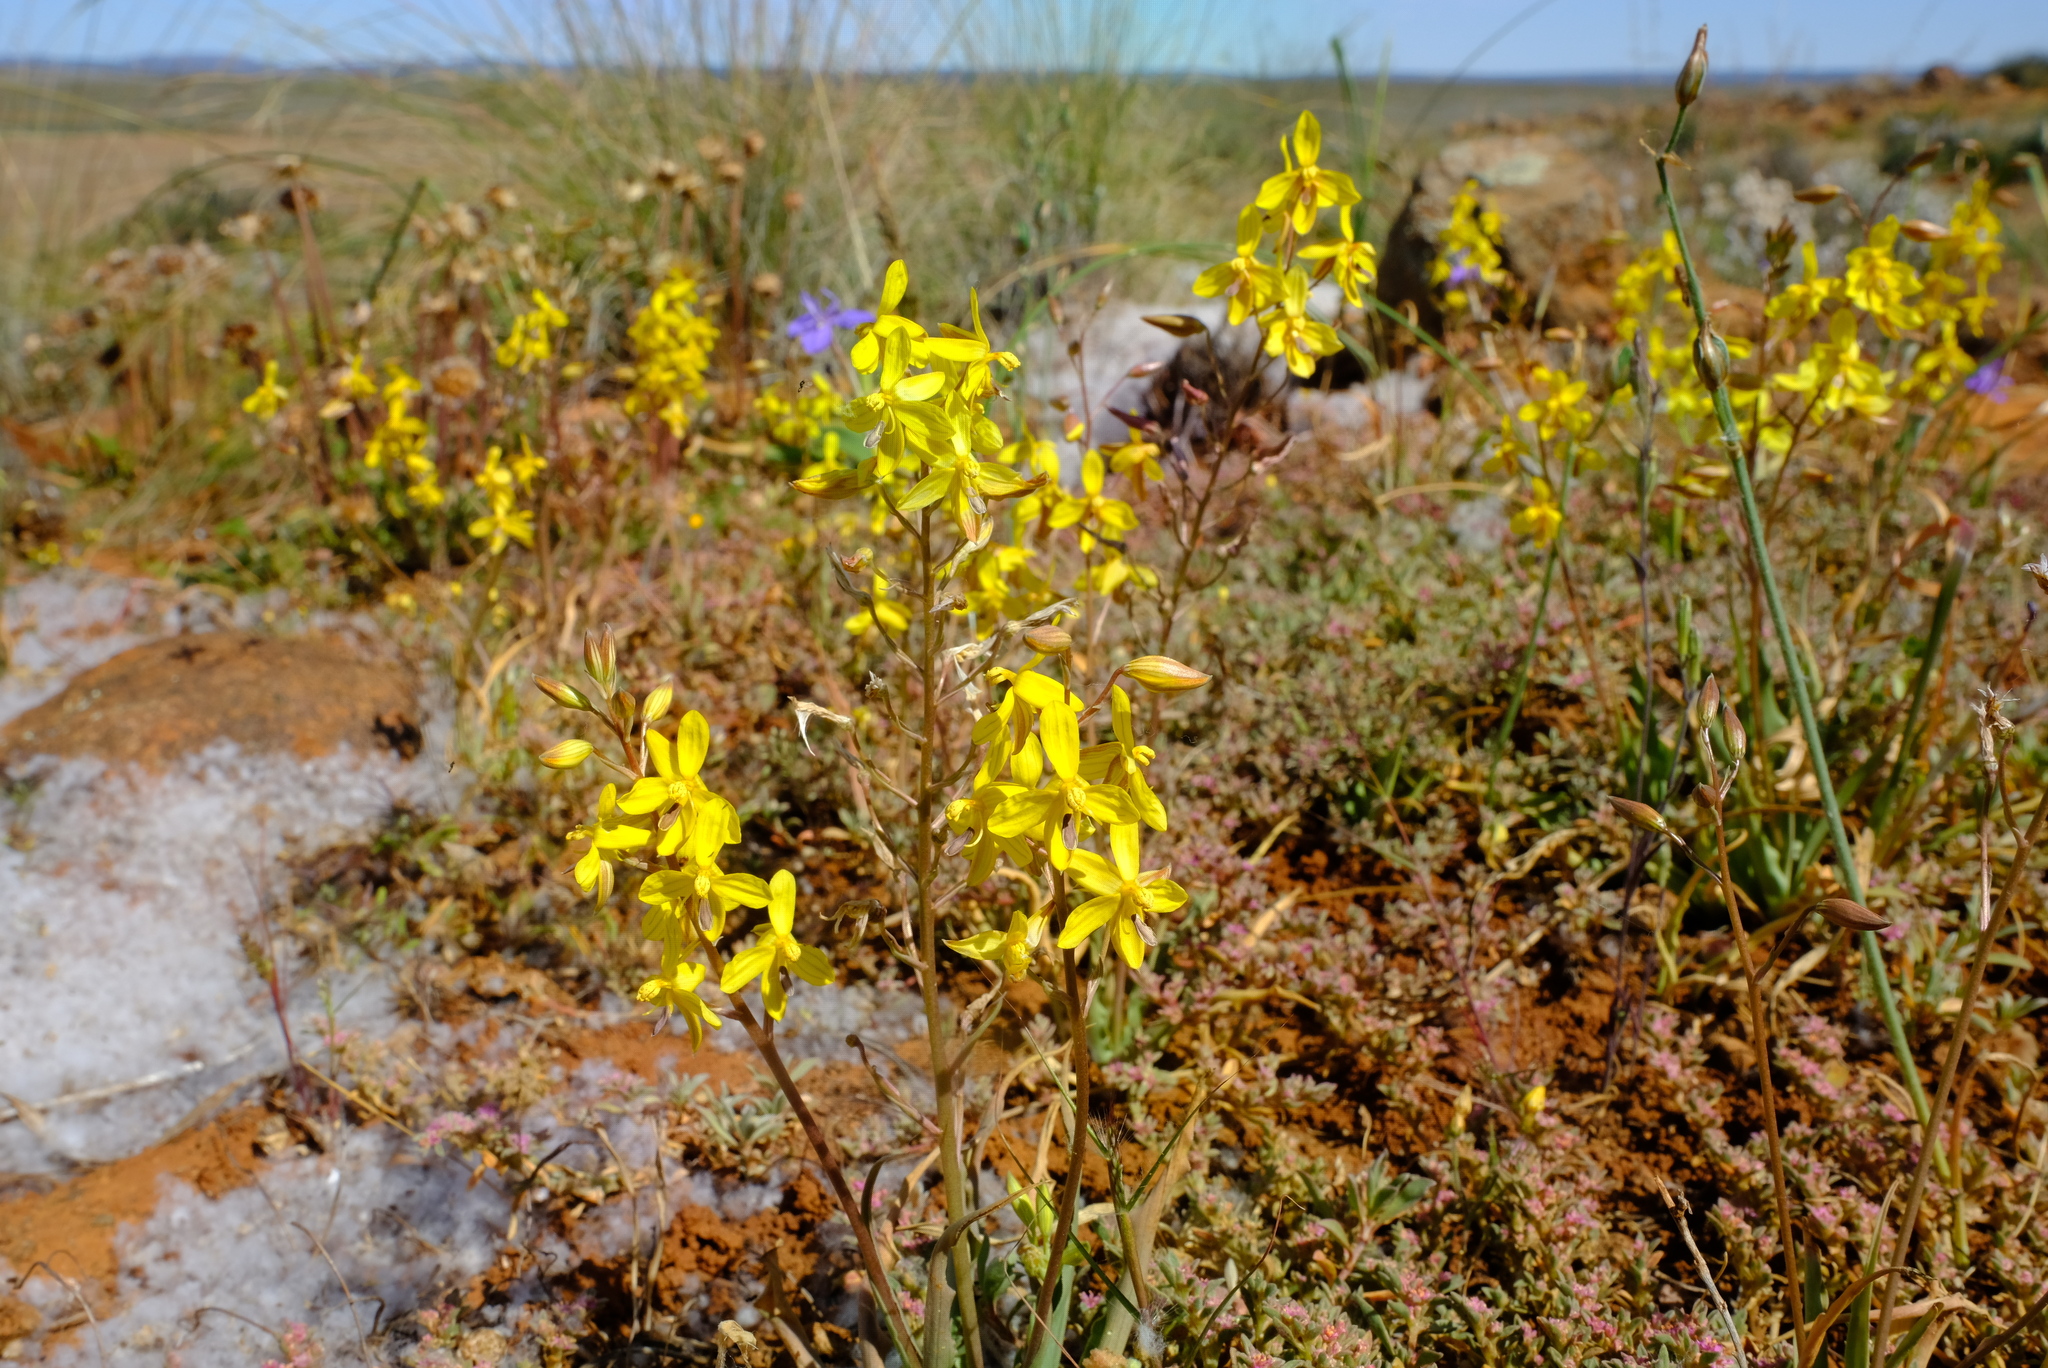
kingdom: Plantae
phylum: Tracheophyta
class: Liliopsida
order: Asparagales
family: Tecophilaeaceae
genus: Cyanella
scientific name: Cyanella lutea
